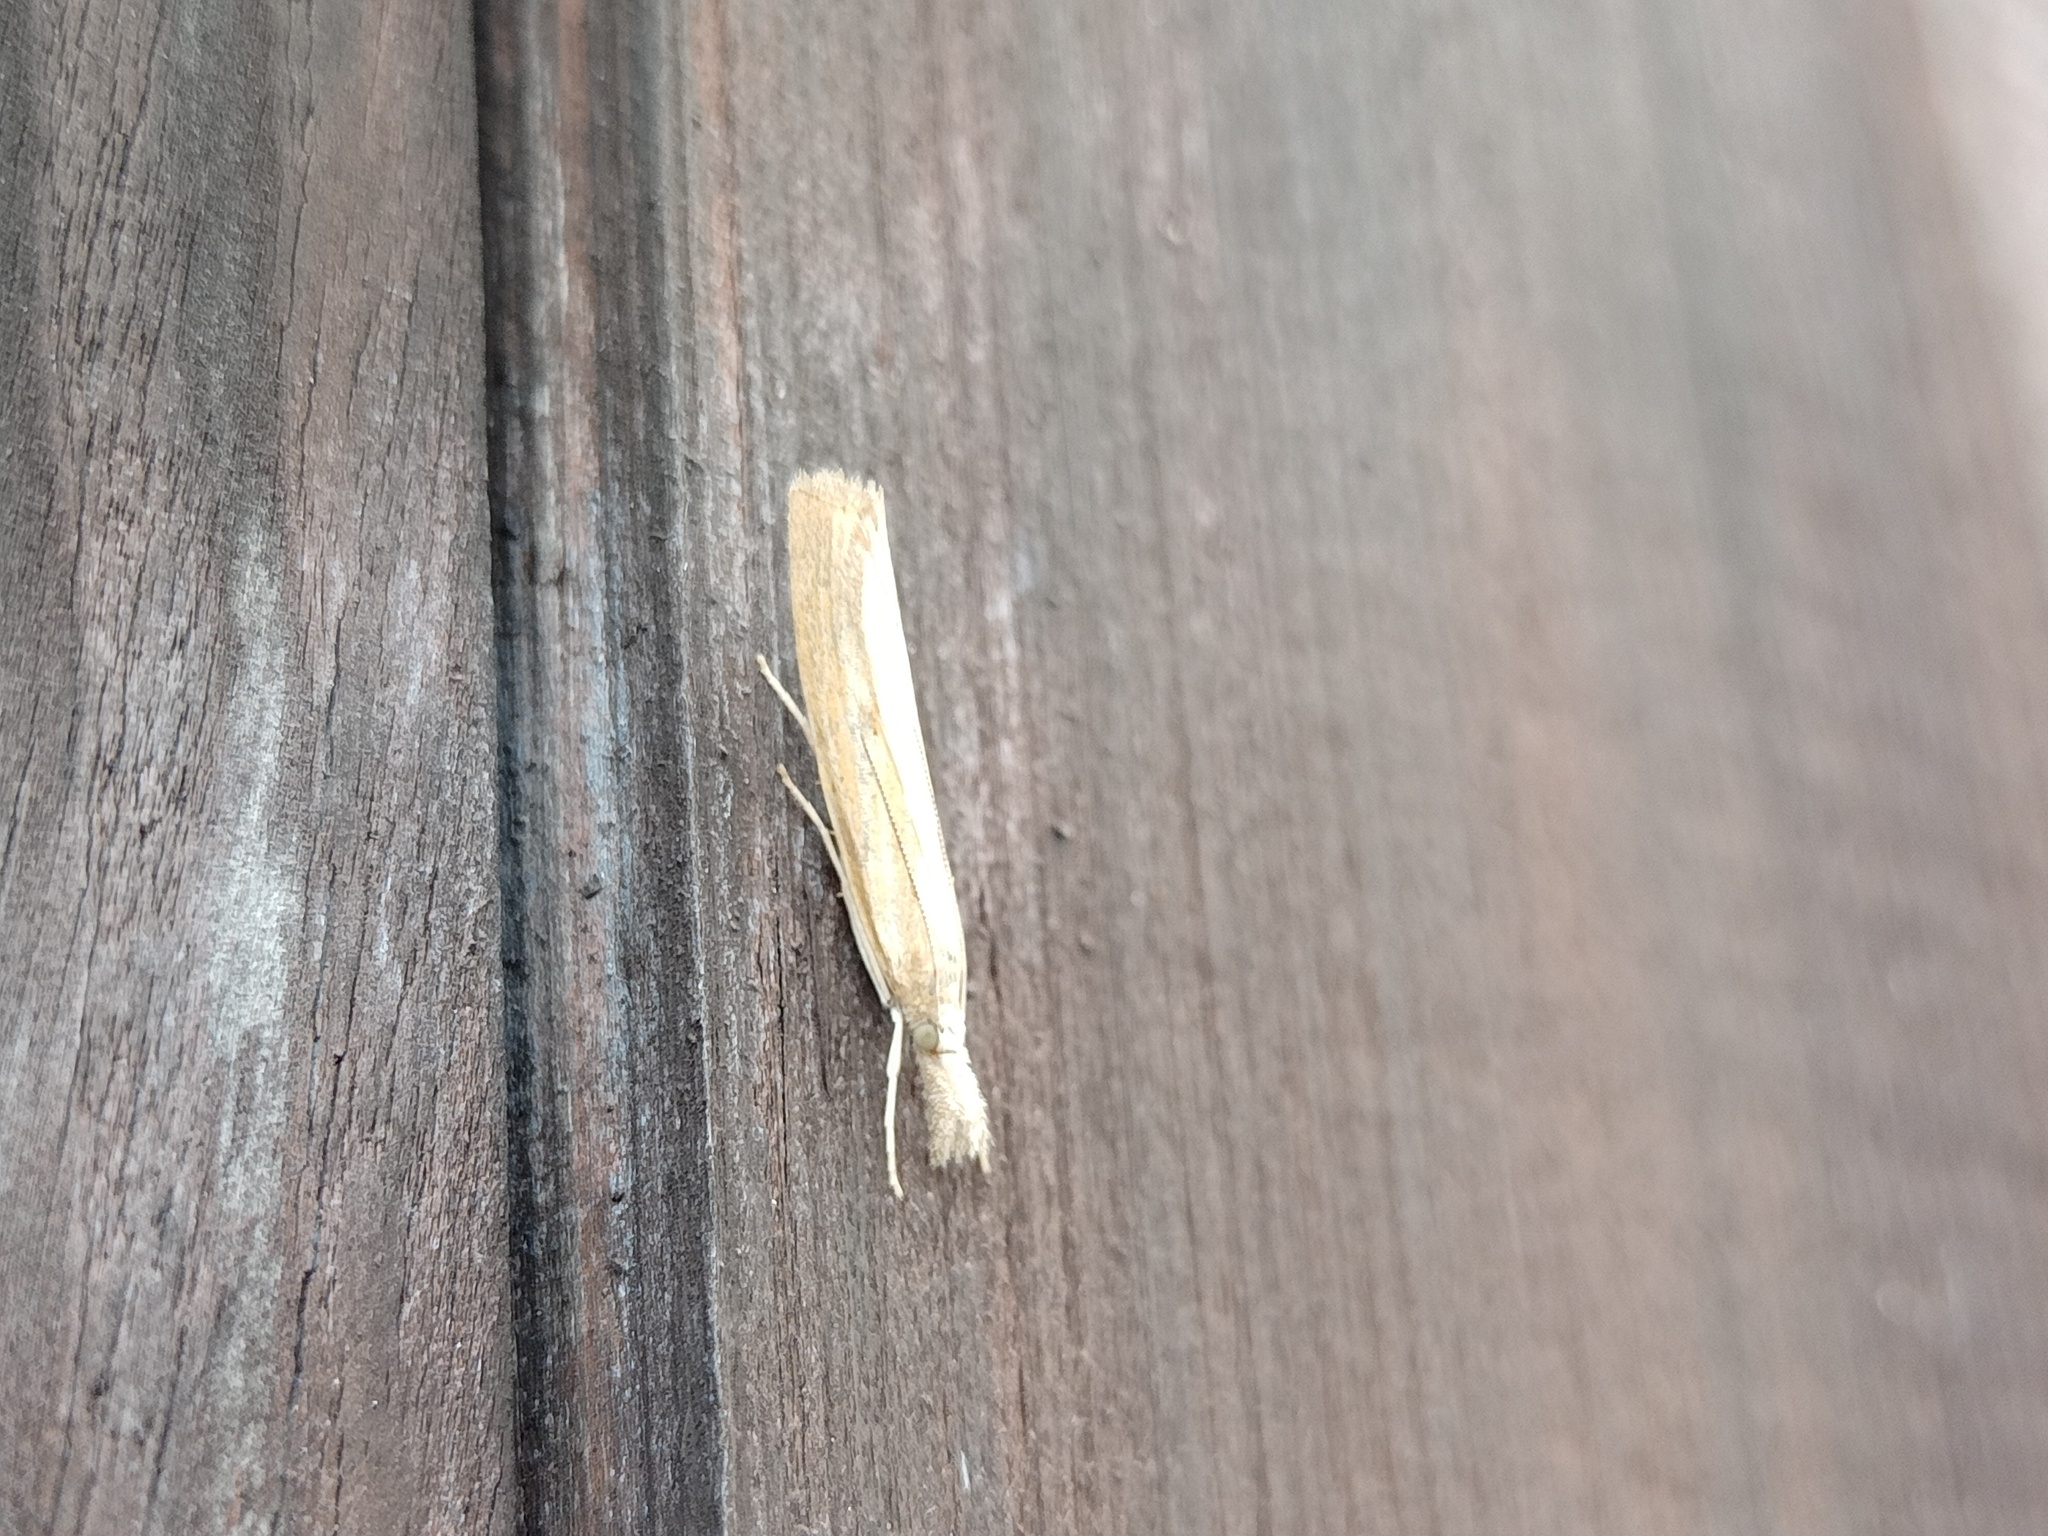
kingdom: Animalia
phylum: Arthropoda
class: Insecta
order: Lepidoptera
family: Crambidae
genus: Agriphila
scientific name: Agriphila inquinatella
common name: Barred grass-veneer
